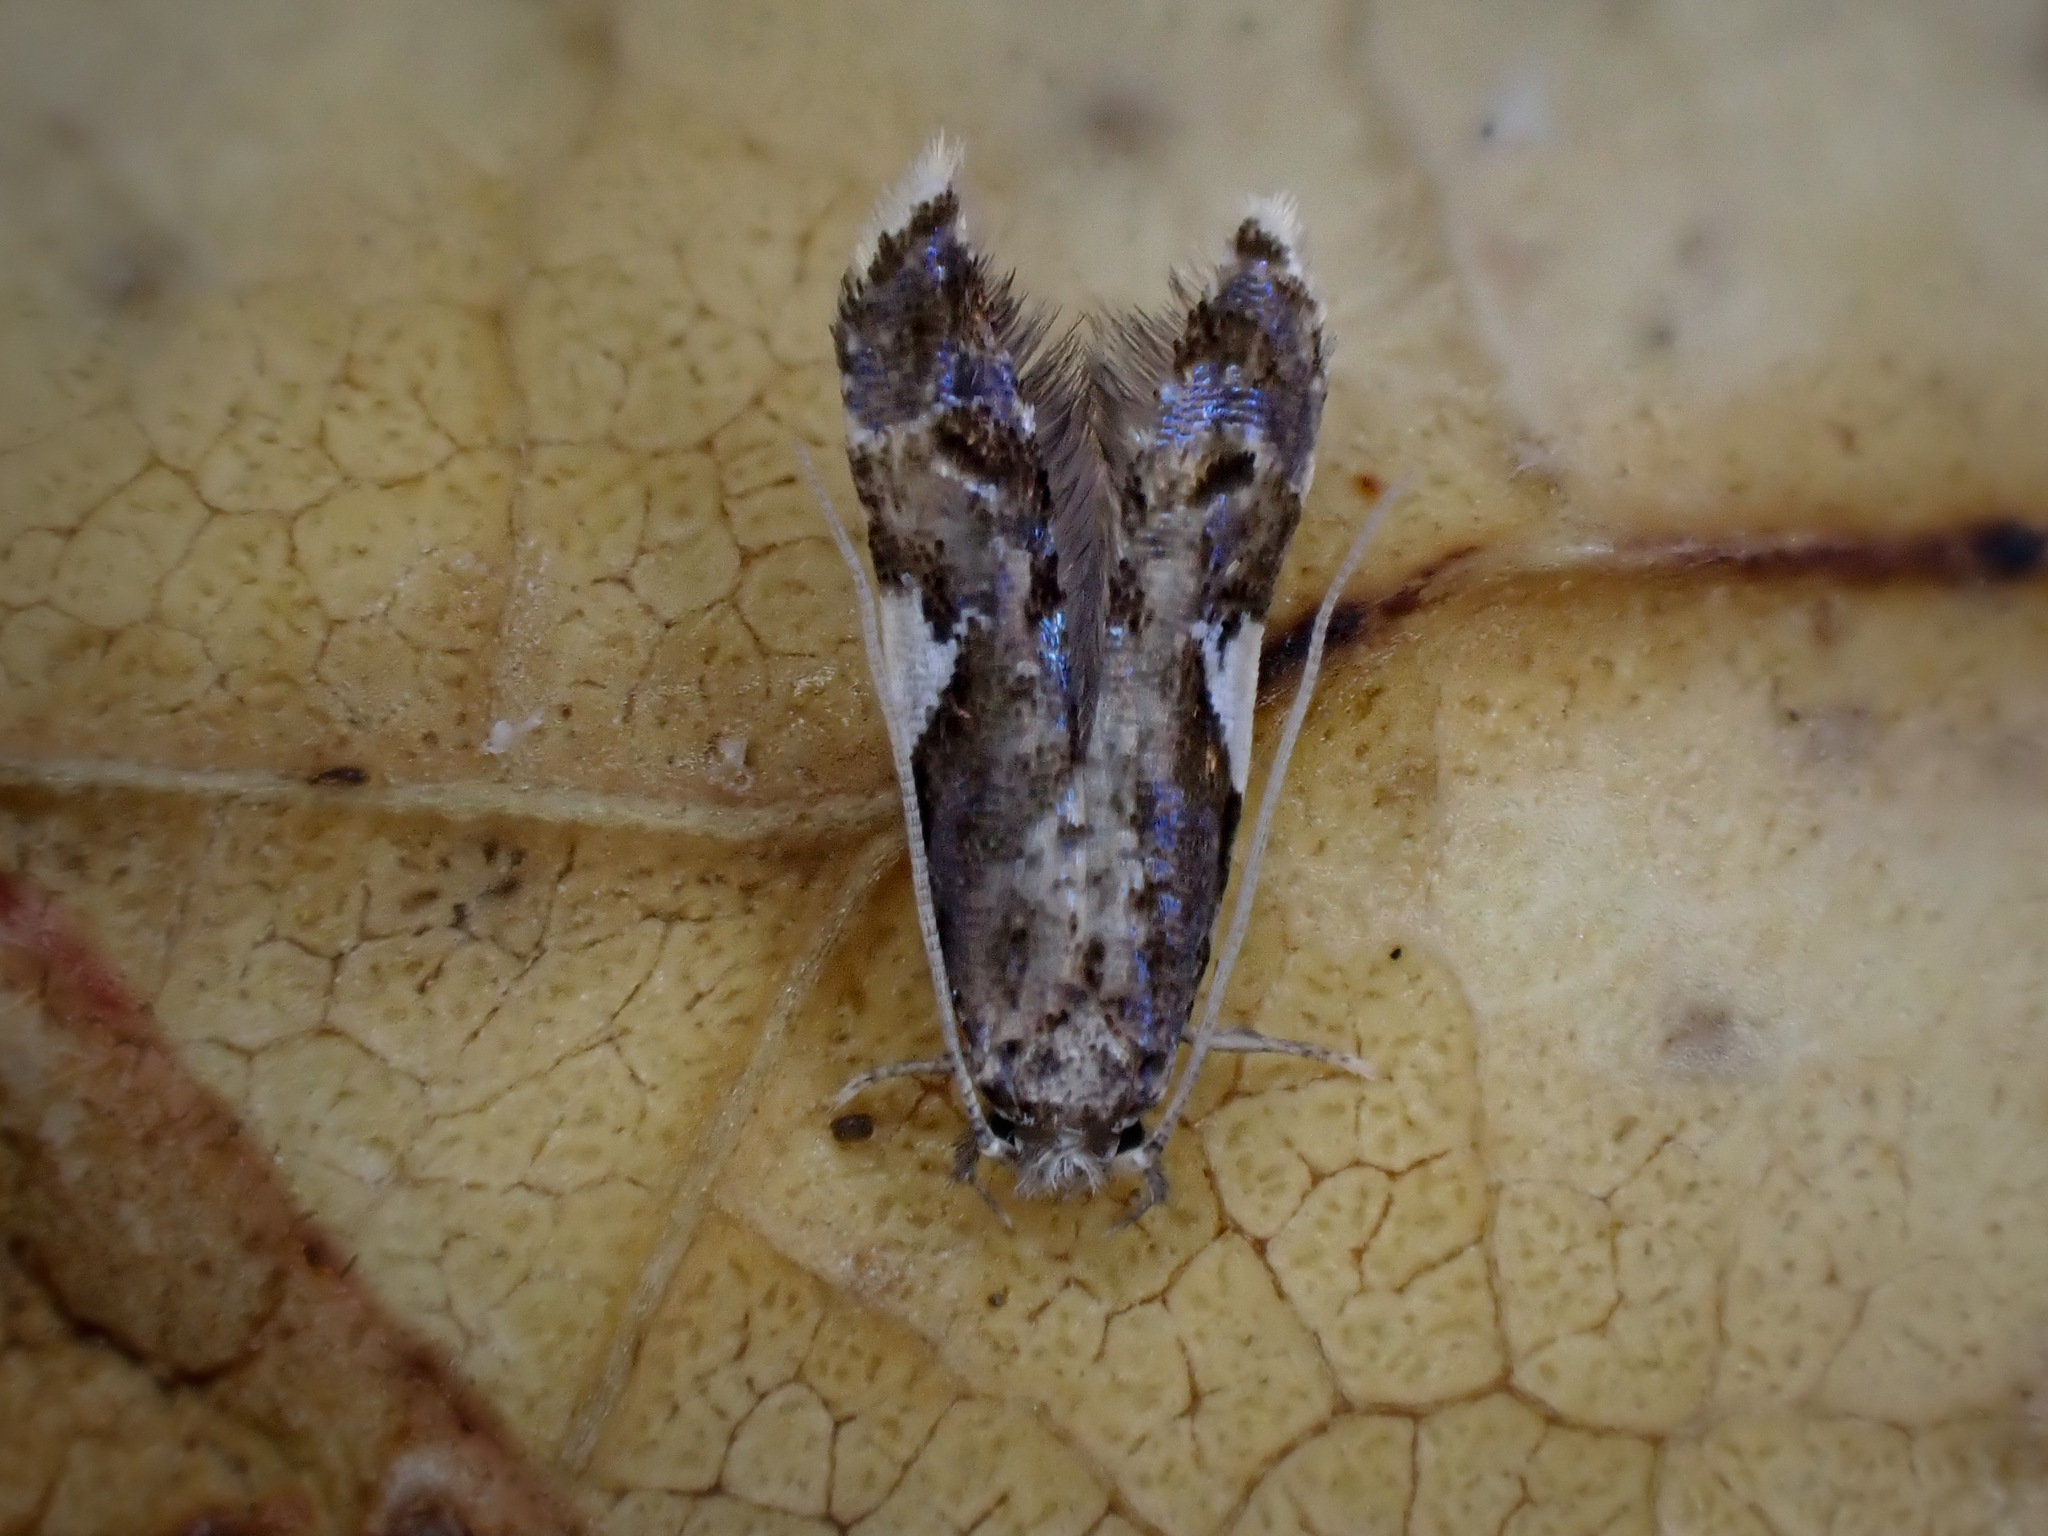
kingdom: Animalia
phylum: Arthropoda
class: Insecta
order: Lepidoptera
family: Tineidae
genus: Habrophila
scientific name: Habrophila compseuta
